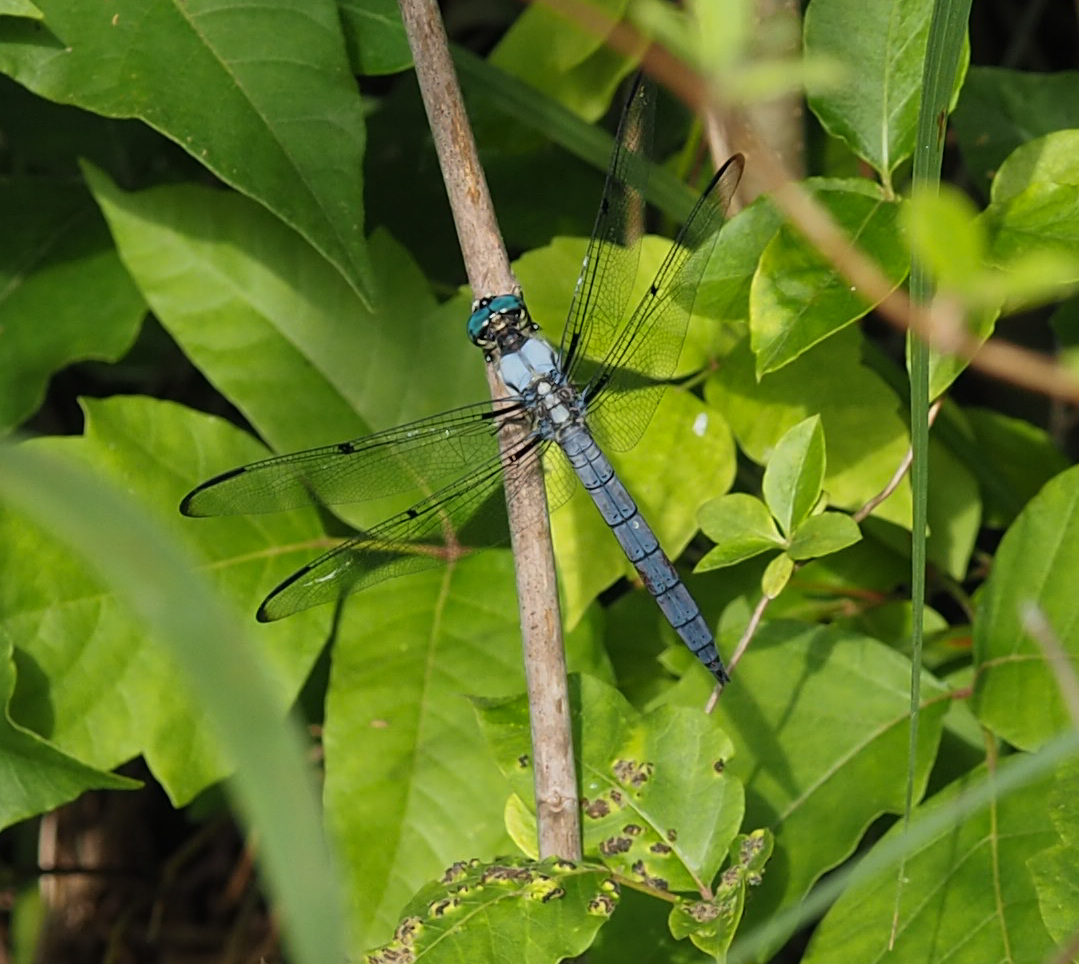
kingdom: Animalia
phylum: Arthropoda
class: Insecta
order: Odonata
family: Libellulidae
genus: Libellula
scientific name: Libellula vibrans
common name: Great blue skimmer
